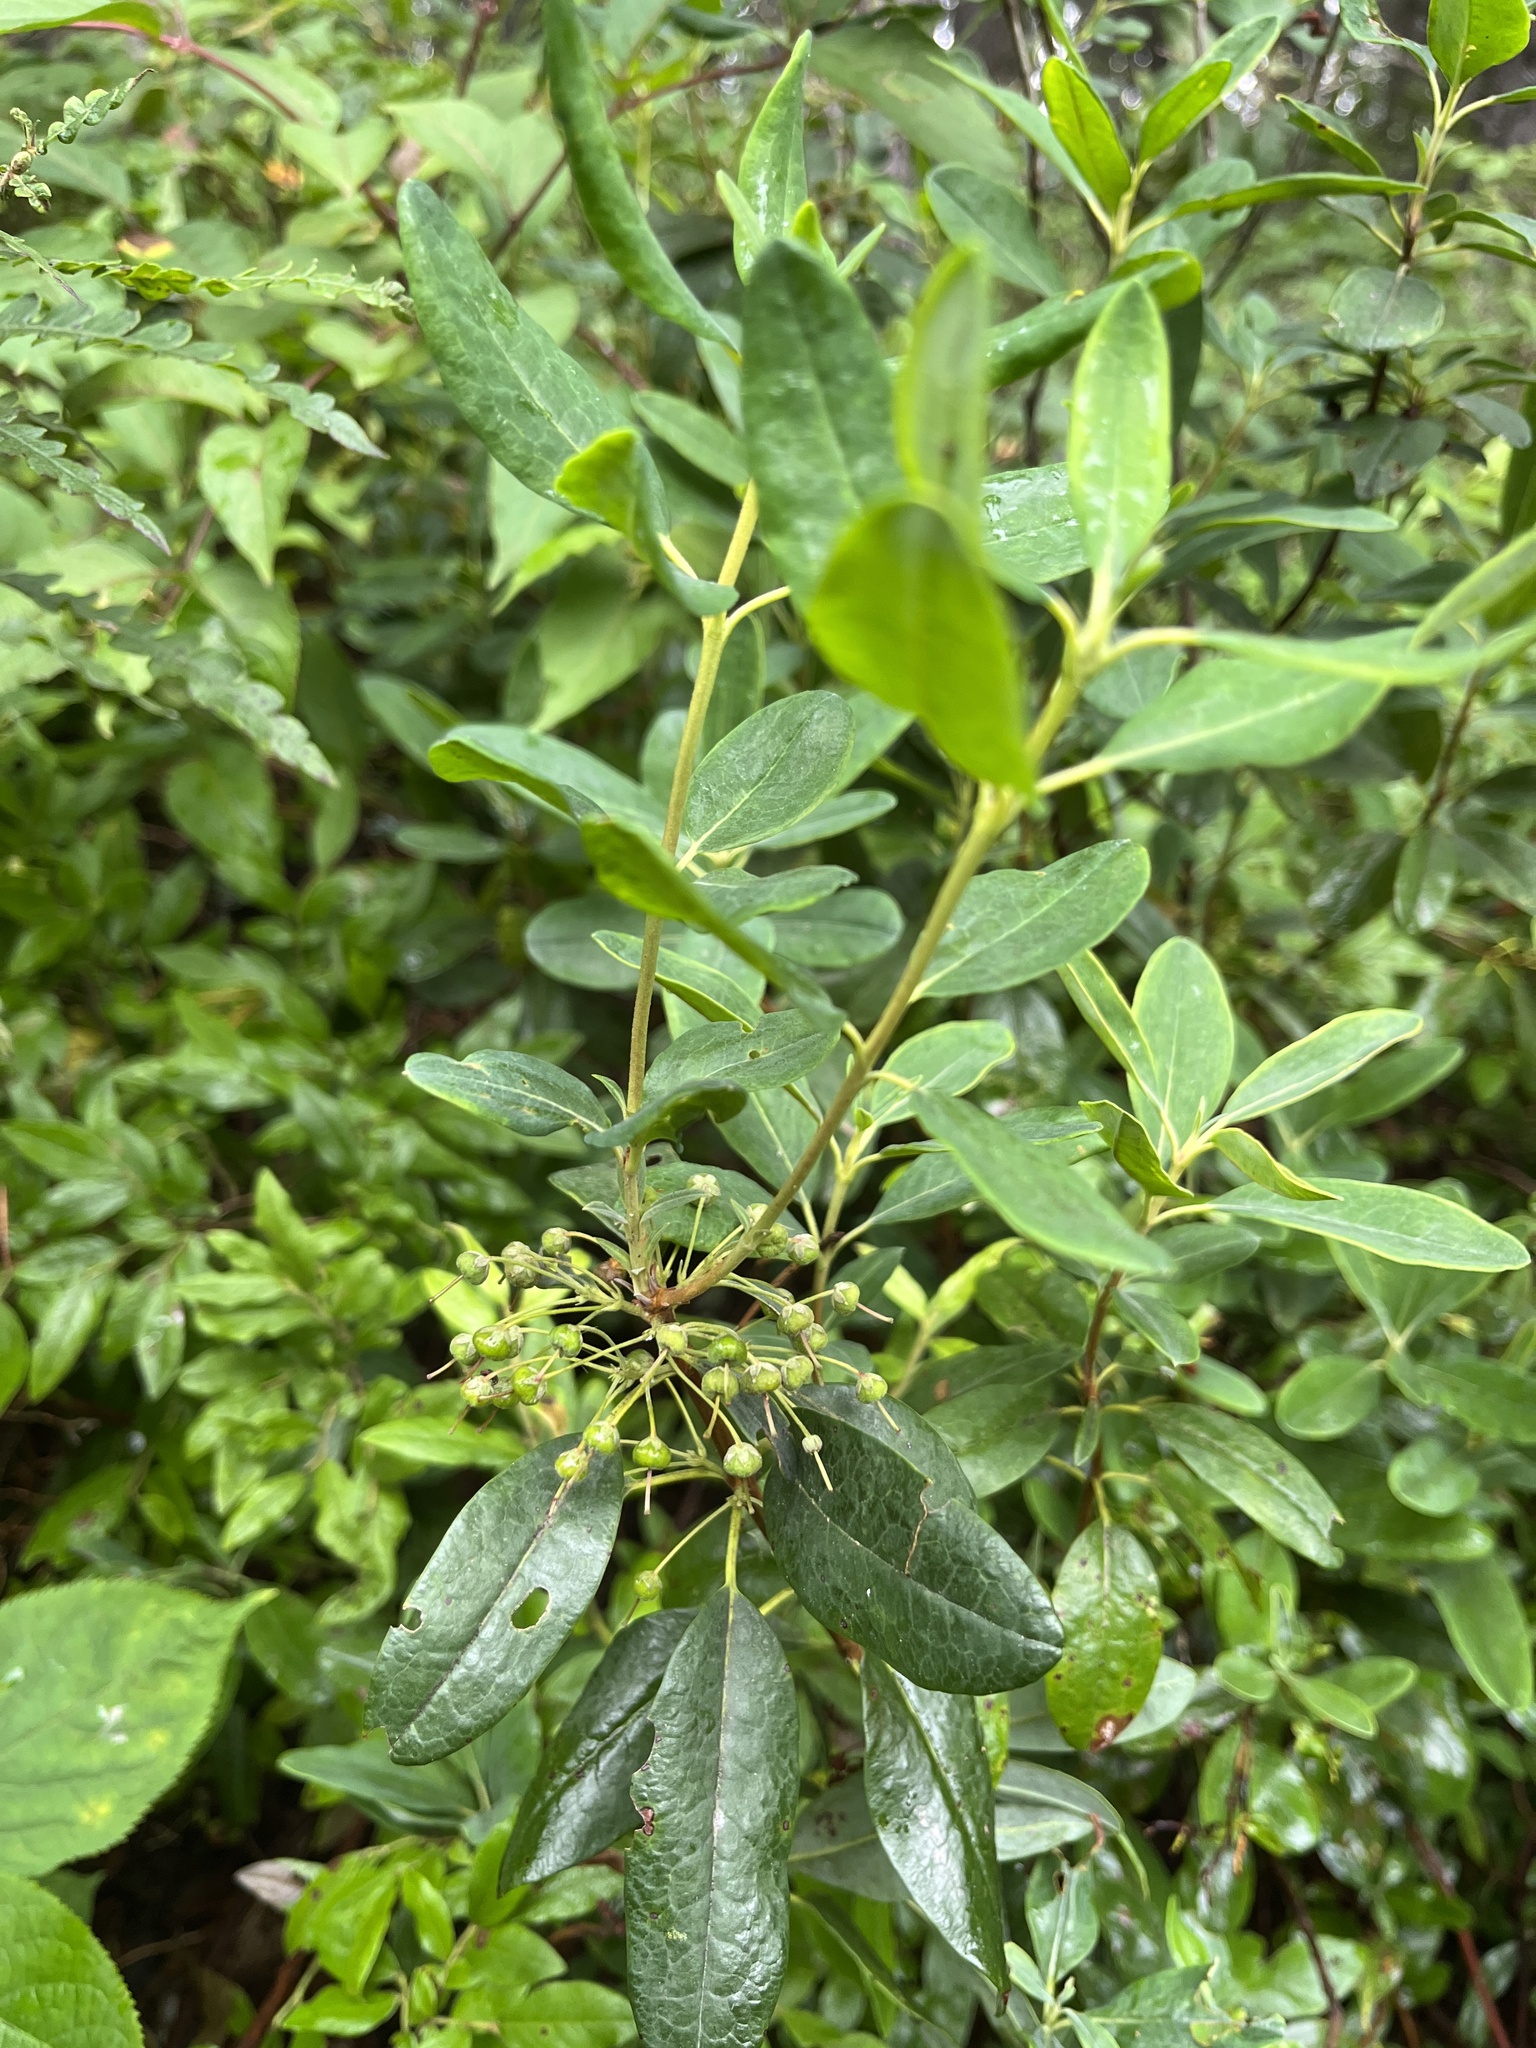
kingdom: Plantae
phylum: Tracheophyta
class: Magnoliopsida
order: Ericales
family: Ericaceae
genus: Kalmia
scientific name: Kalmia angustifolia
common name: Sheep-laurel
